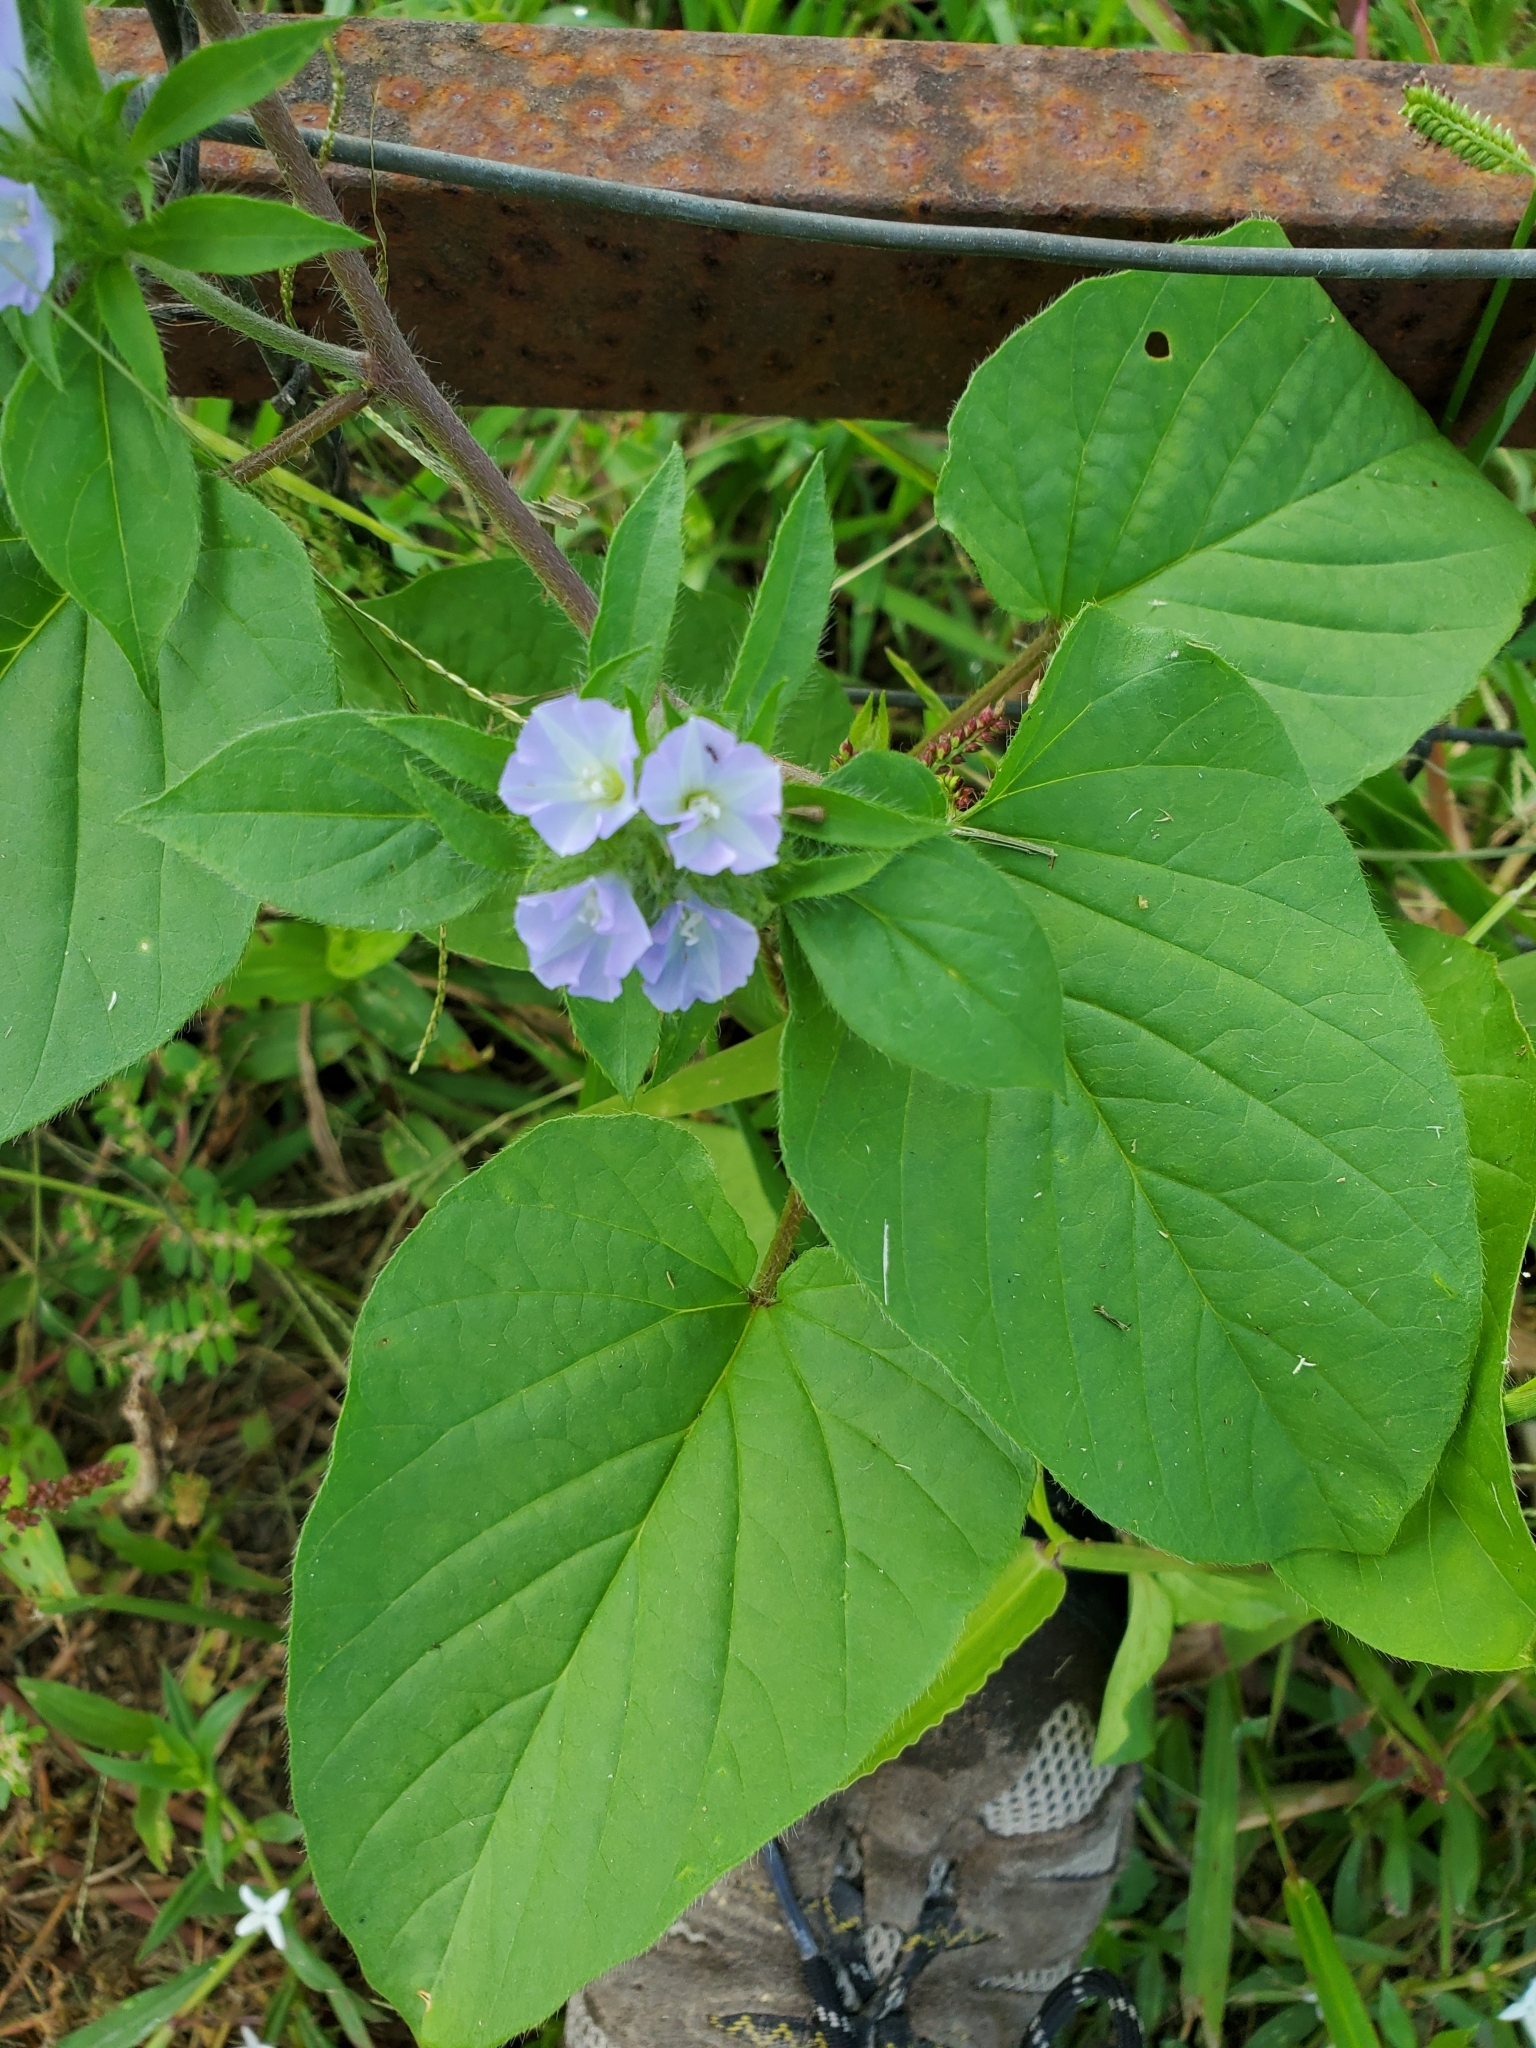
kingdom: Plantae
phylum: Tracheophyta
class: Magnoliopsida
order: Solanales
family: Convolvulaceae
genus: Jacquemontia
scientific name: Jacquemontia tamnifolia
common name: Hairy clustervine
